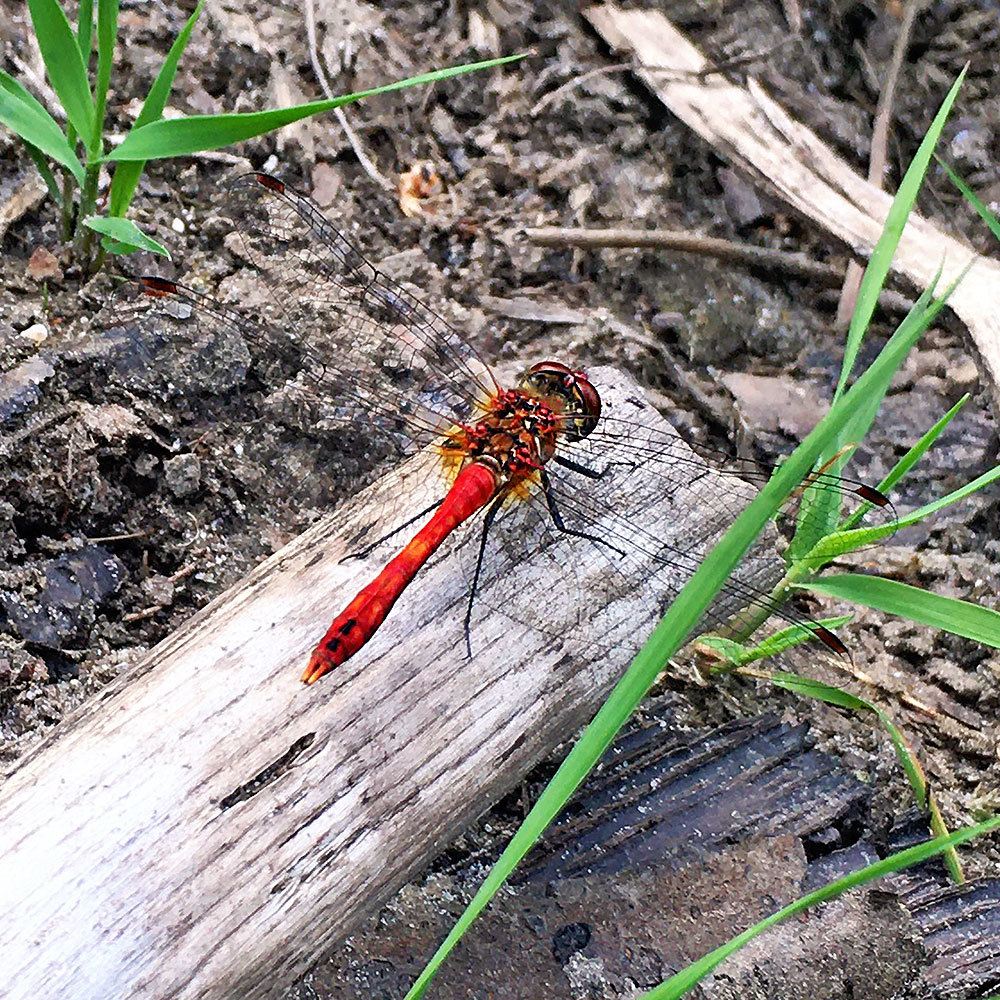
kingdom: Animalia
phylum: Arthropoda
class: Insecta
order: Odonata
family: Libellulidae
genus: Sympetrum
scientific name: Sympetrum sanguineum
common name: Ruddy darter
